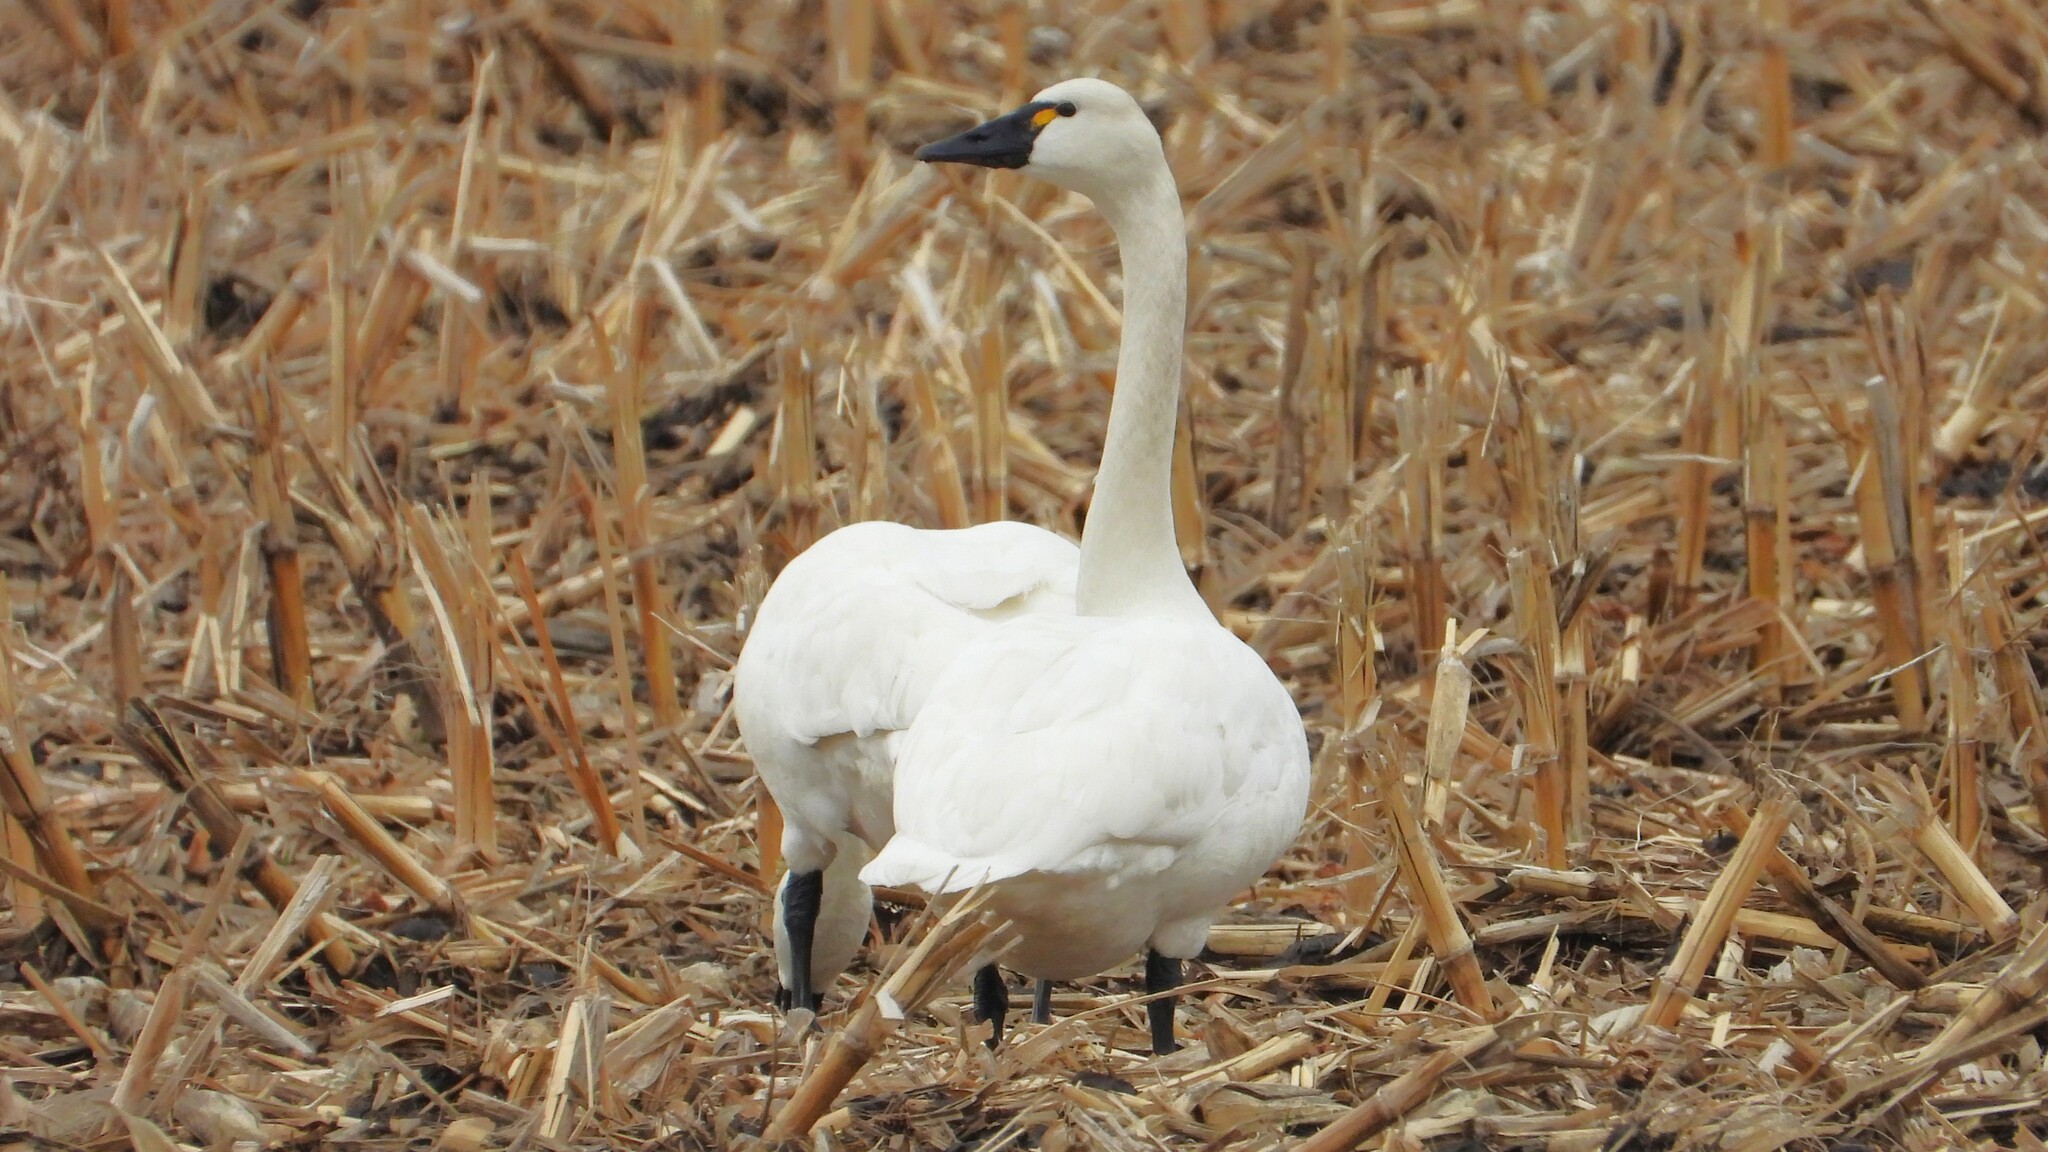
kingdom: Animalia
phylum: Chordata
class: Aves
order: Anseriformes
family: Anatidae
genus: Cygnus
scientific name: Cygnus columbianus
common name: Tundra swan
